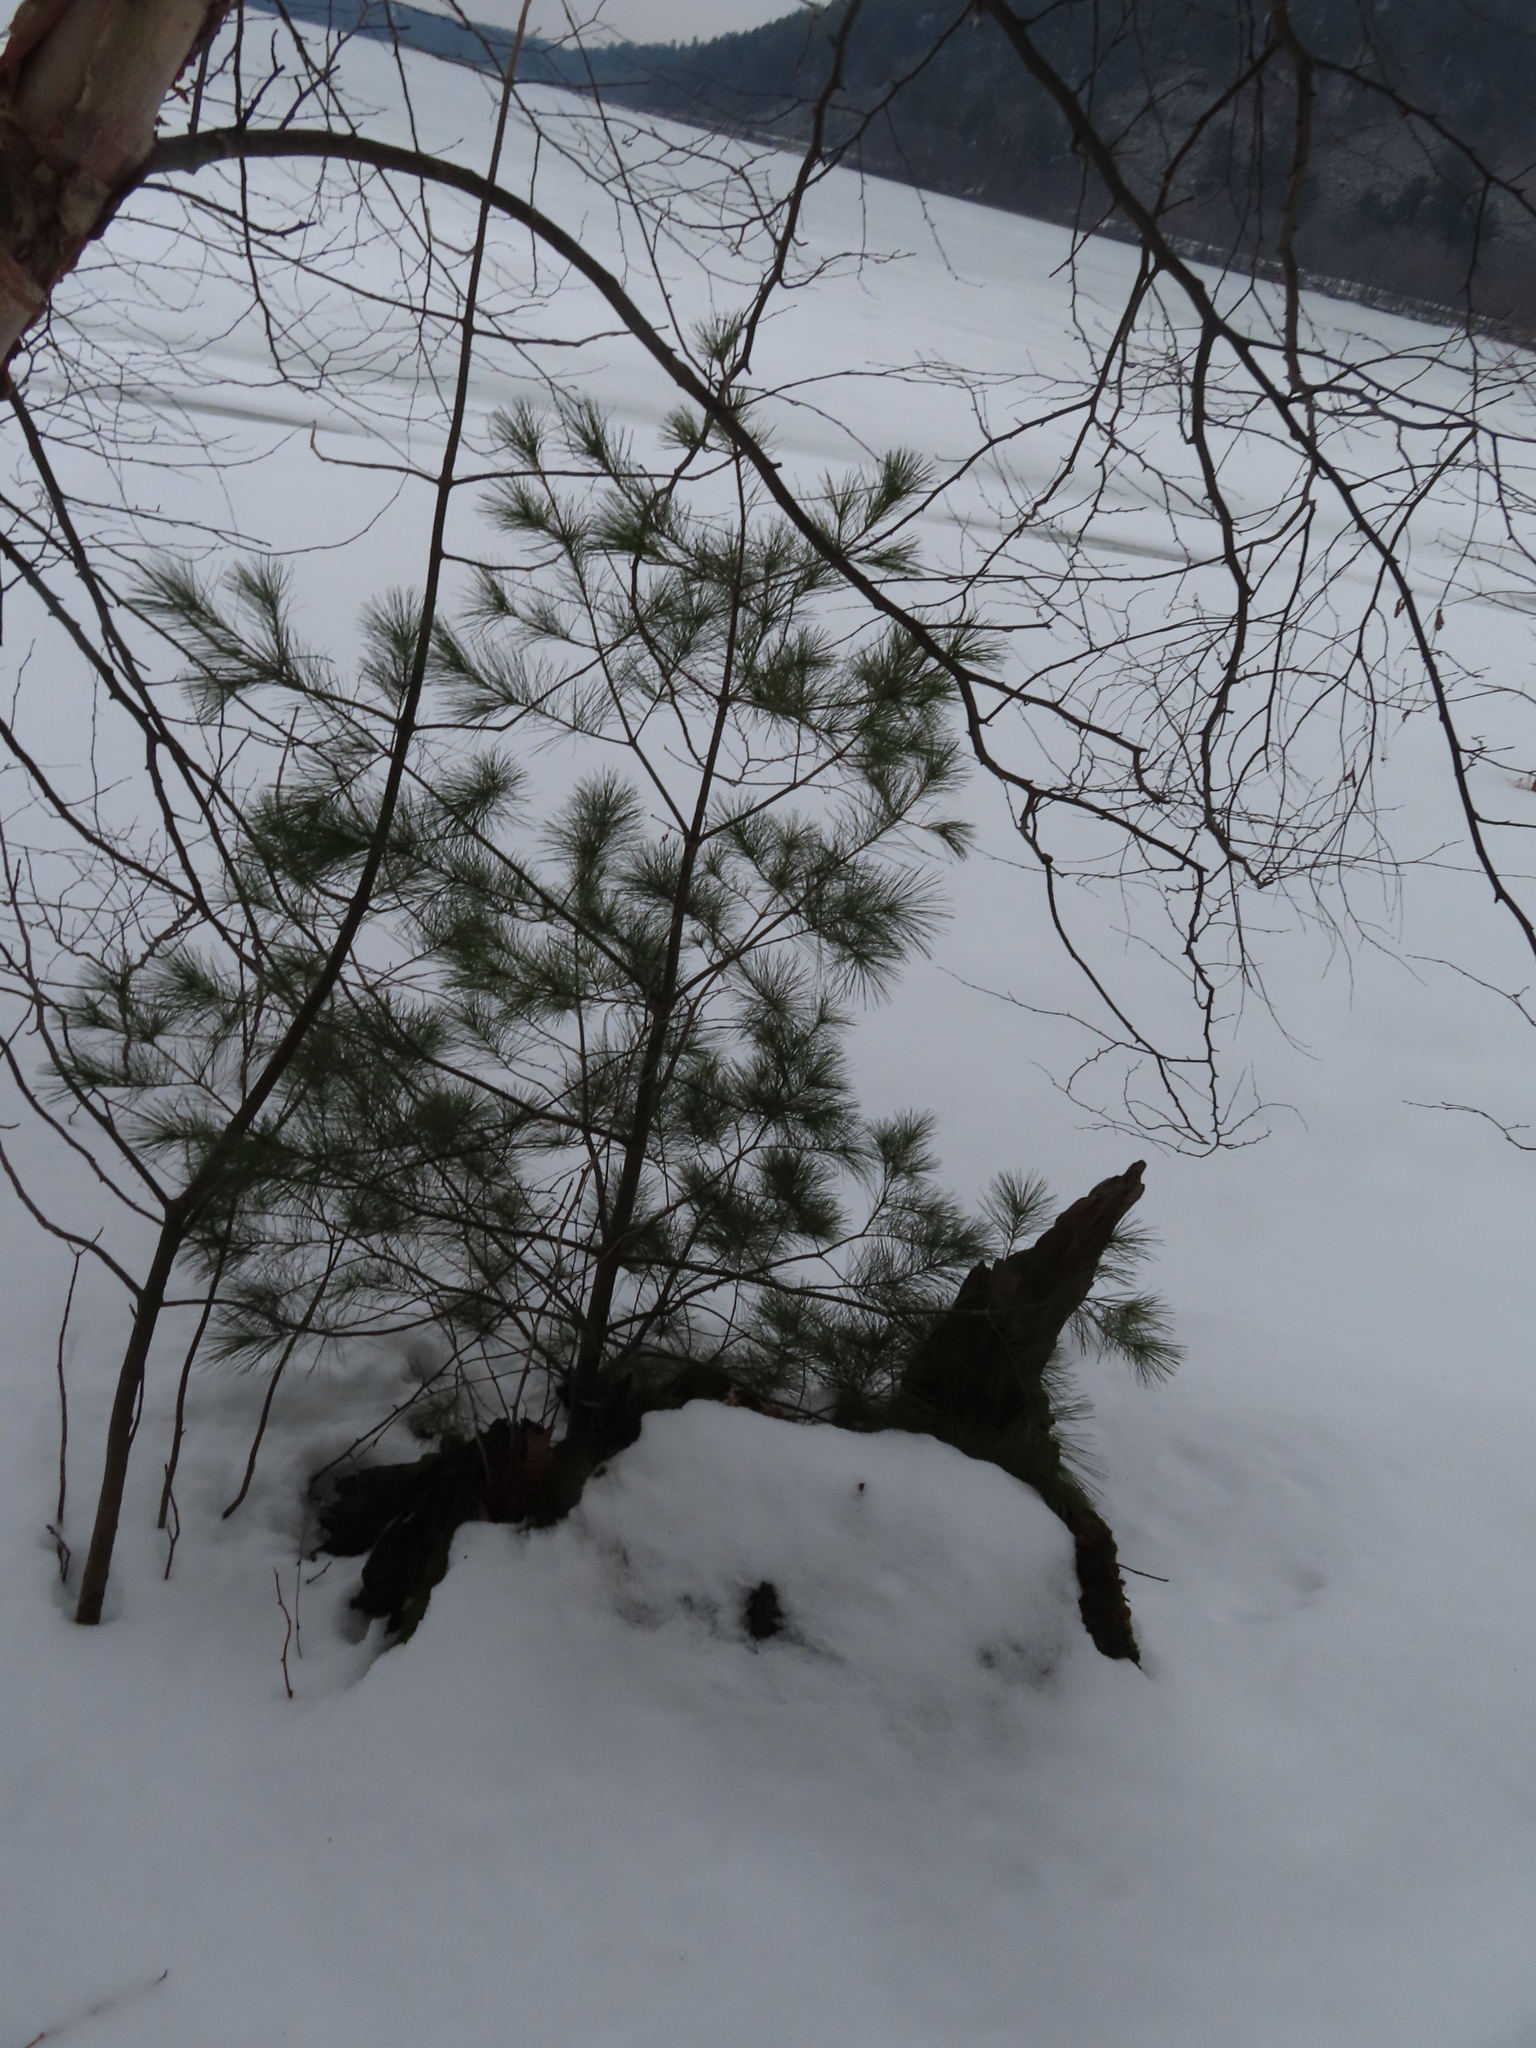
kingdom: Plantae
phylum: Tracheophyta
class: Pinopsida
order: Pinales
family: Pinaceae
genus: Pinus
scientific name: Pinus strobus
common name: Weymouth pine
